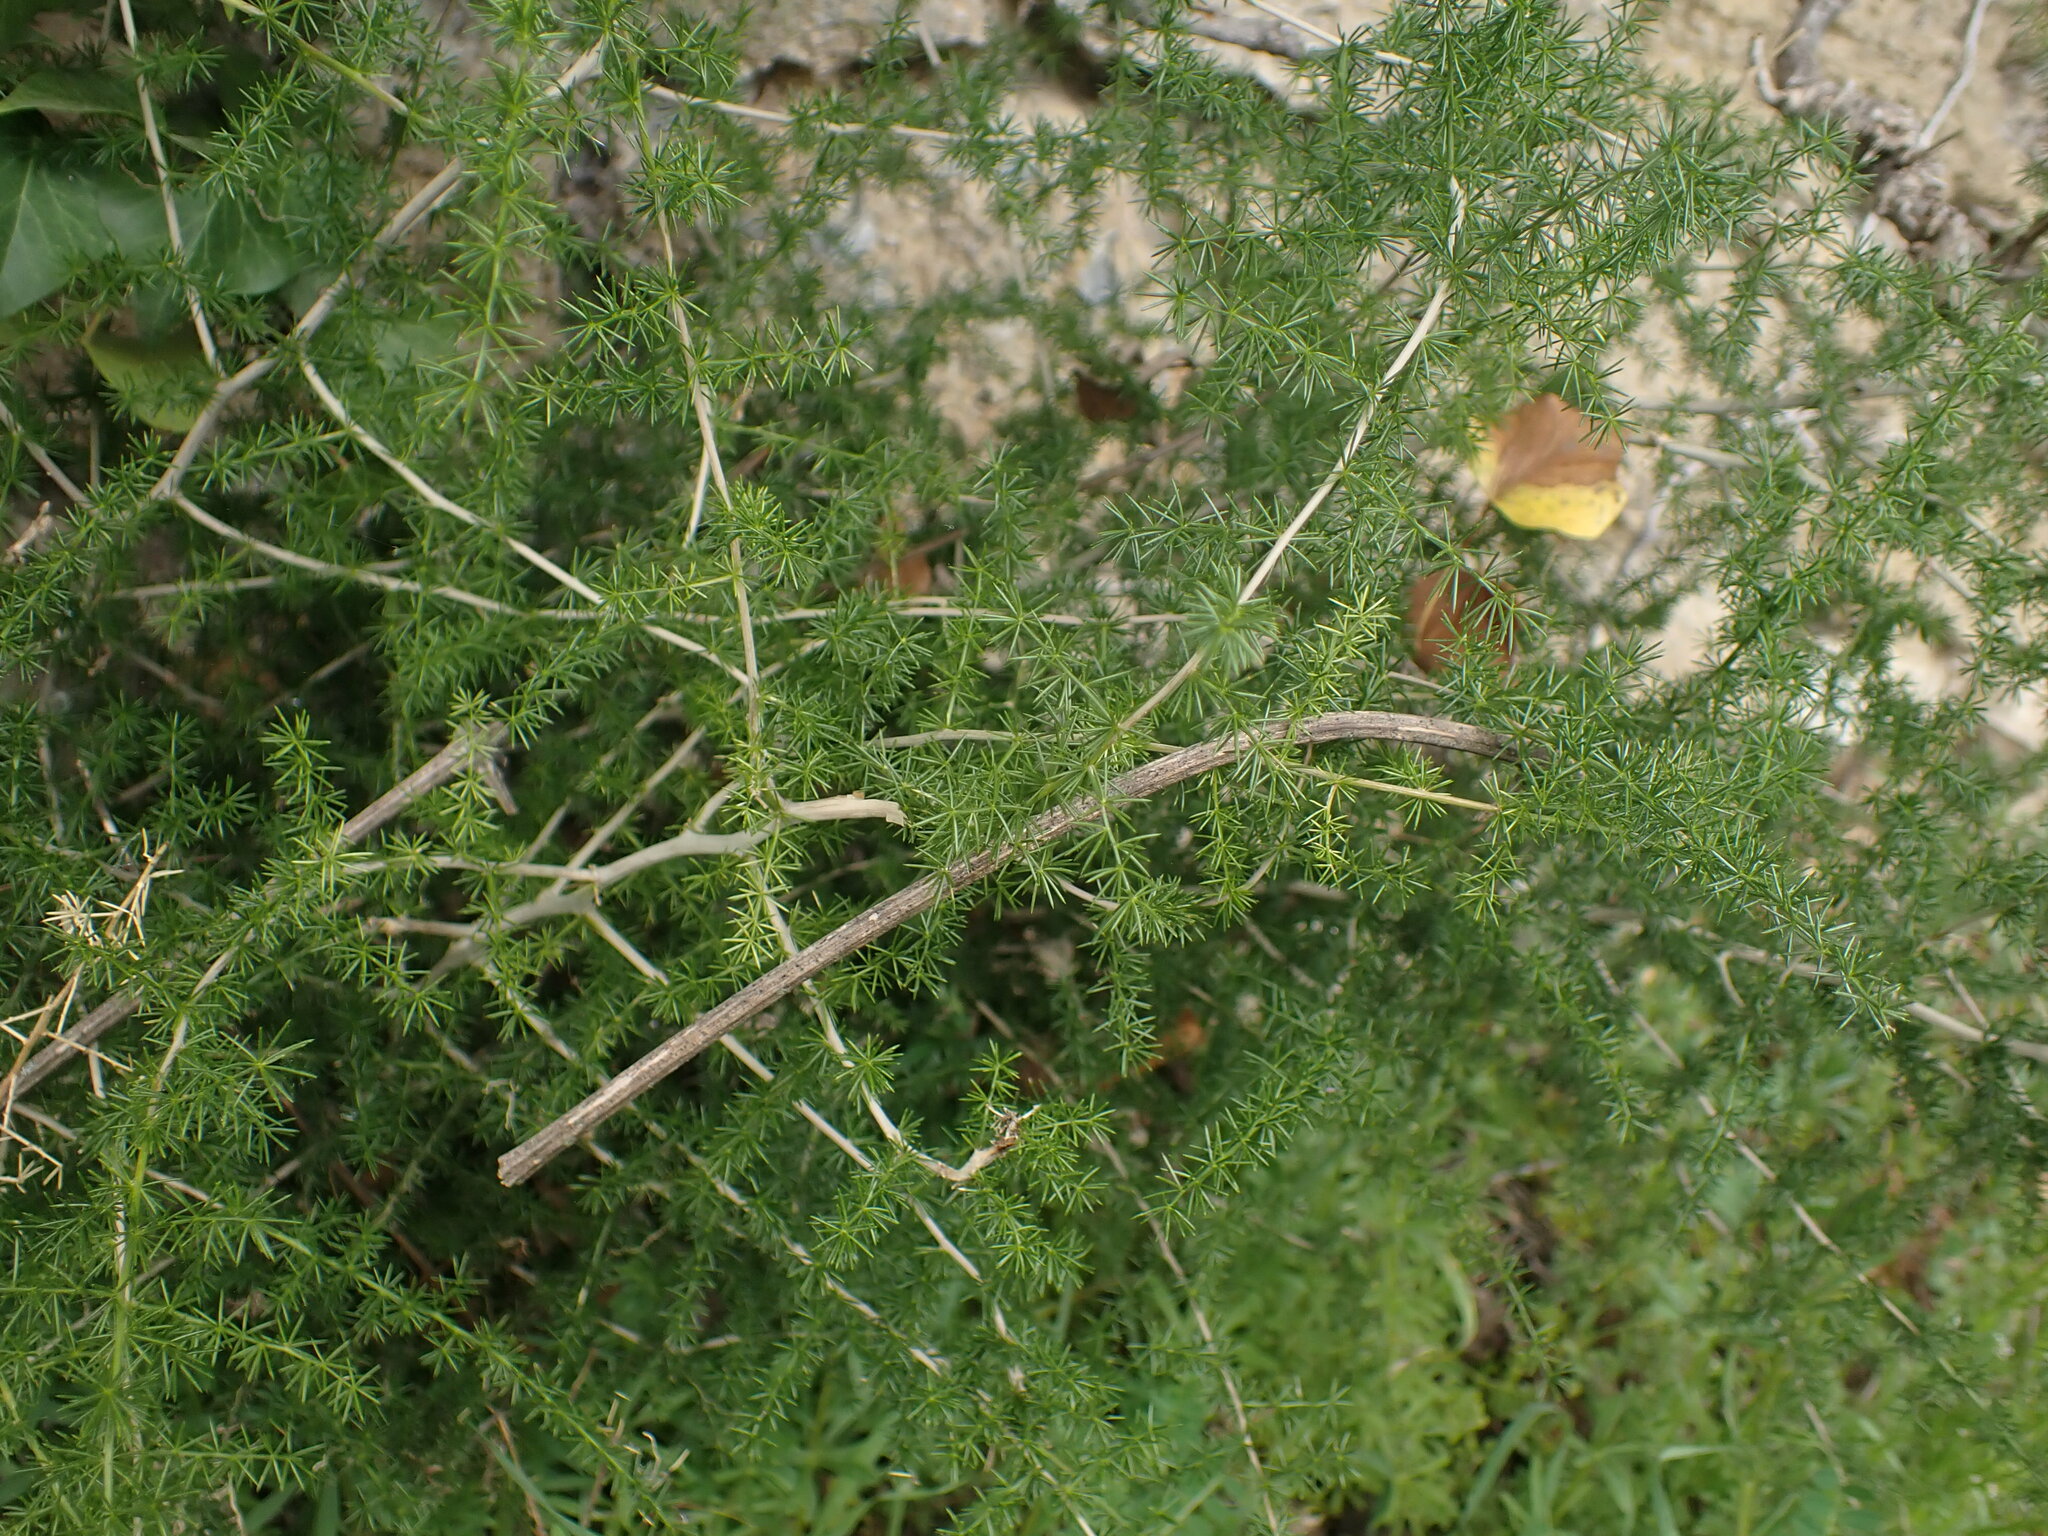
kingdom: Plantae
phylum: Tracheophyta
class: Liliopsida
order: Asparagales
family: Asparagaceae
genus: Asparagus
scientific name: Asparagus acutifolius
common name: Wild asparagus
